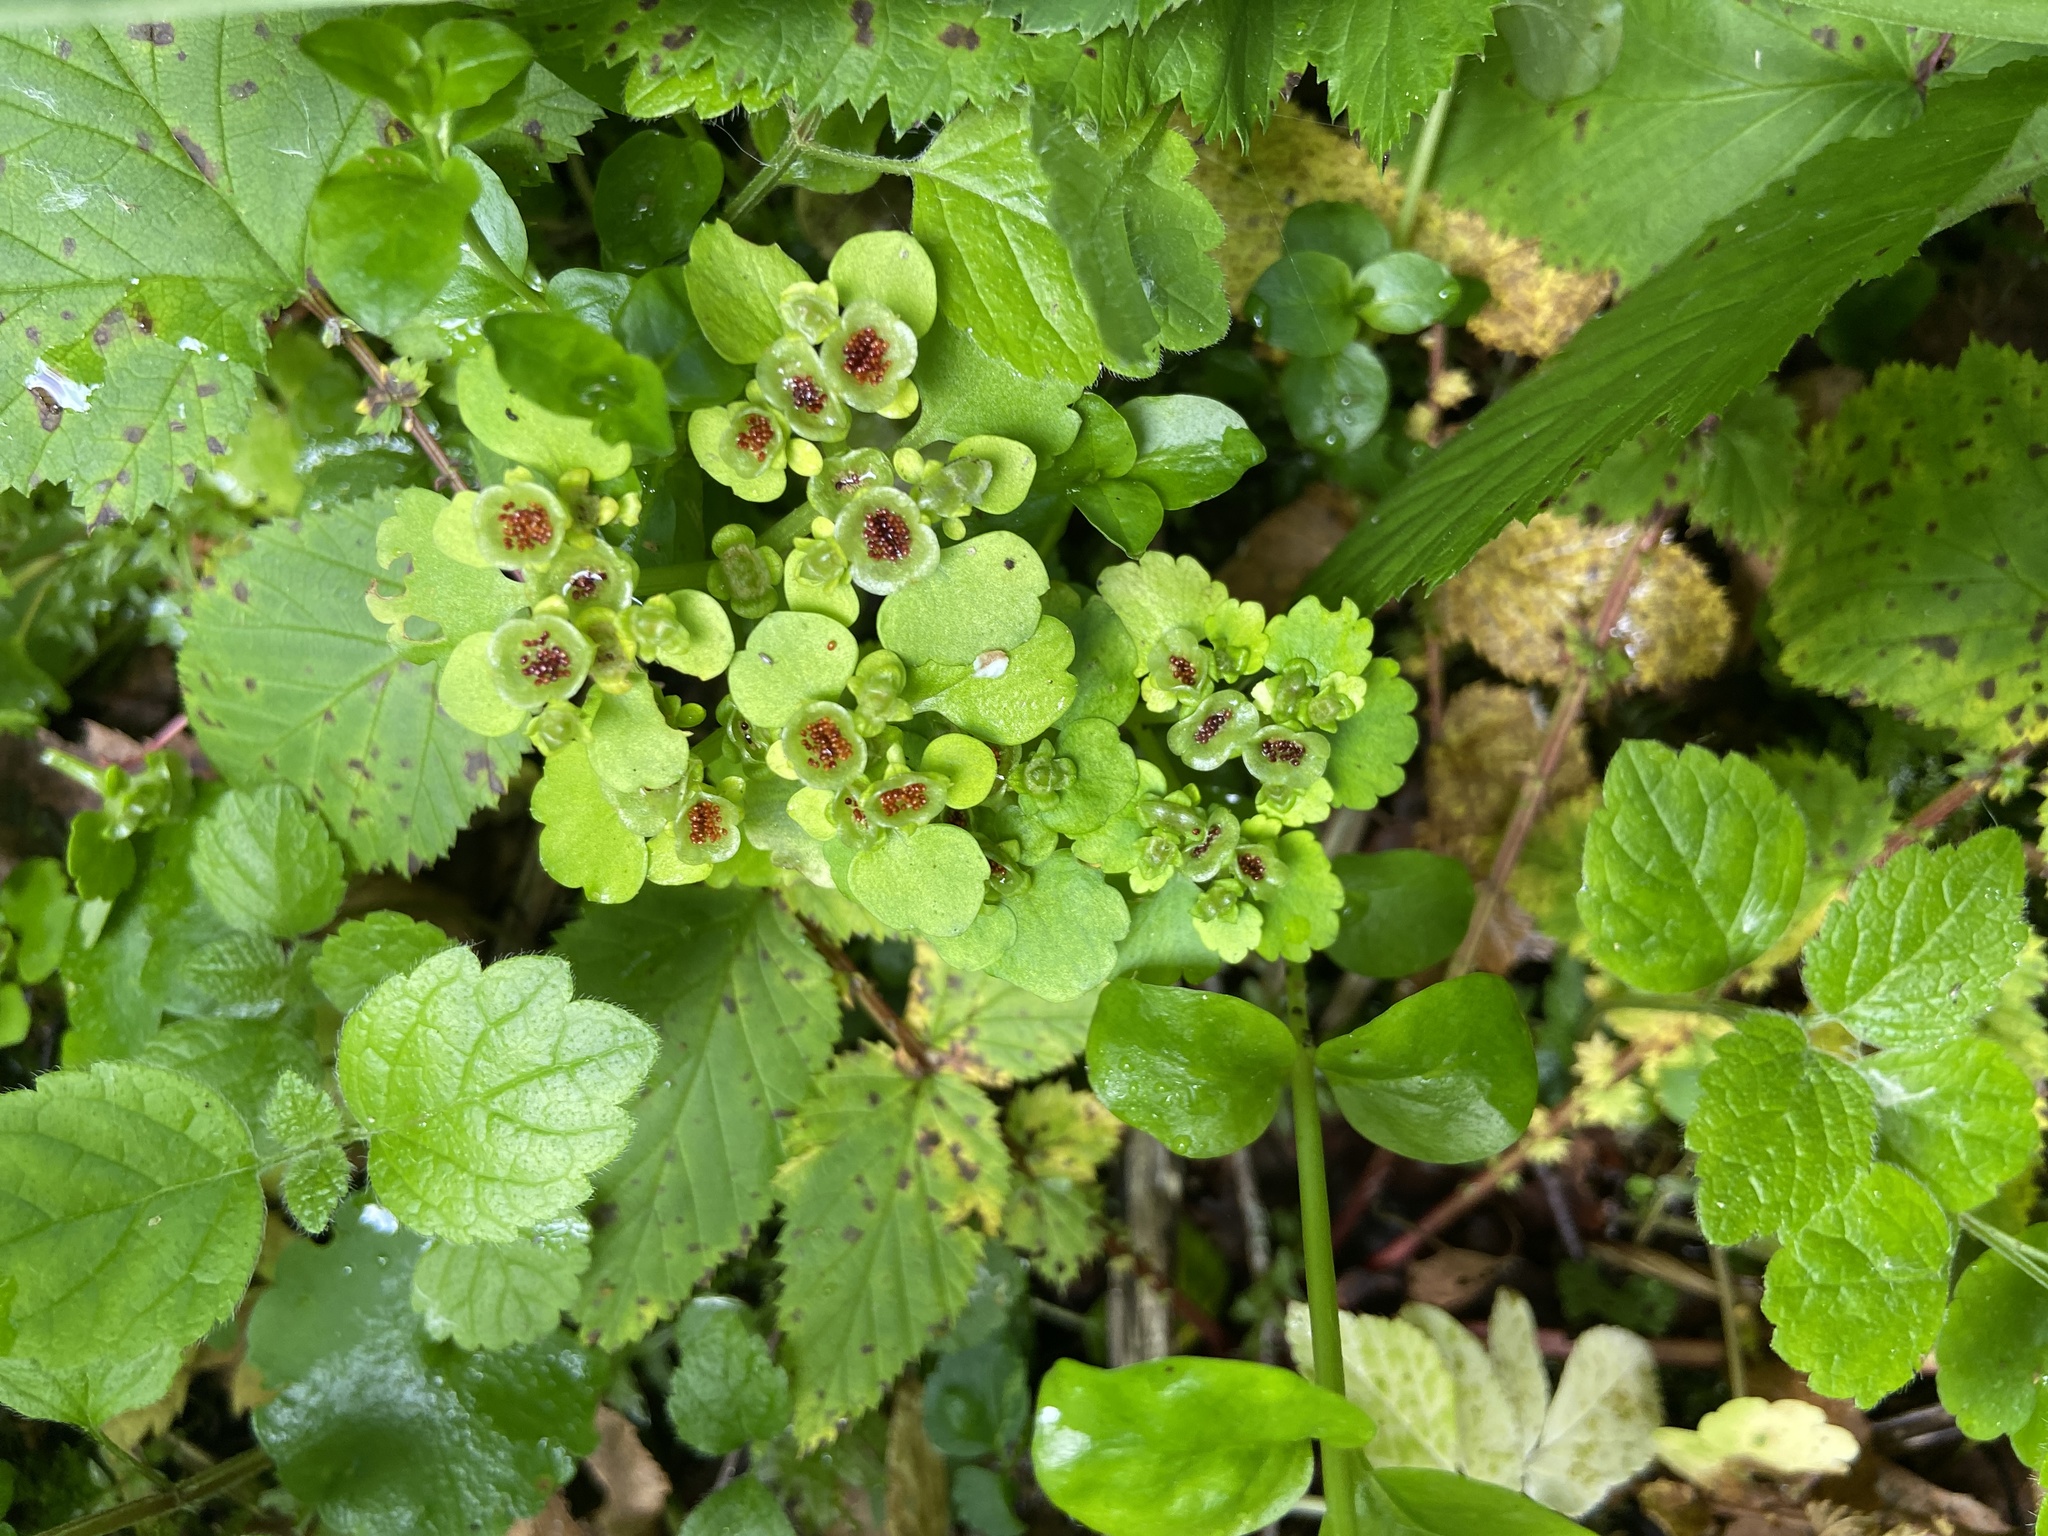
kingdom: Plantae
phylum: Tracheophyta
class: Magnoliopsida
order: Saxifragales
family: Saxifragaceae
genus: Chrysosplenium
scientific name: Chrysosplenium alternifolium
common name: Alternate-leaved golden-saxifrage
